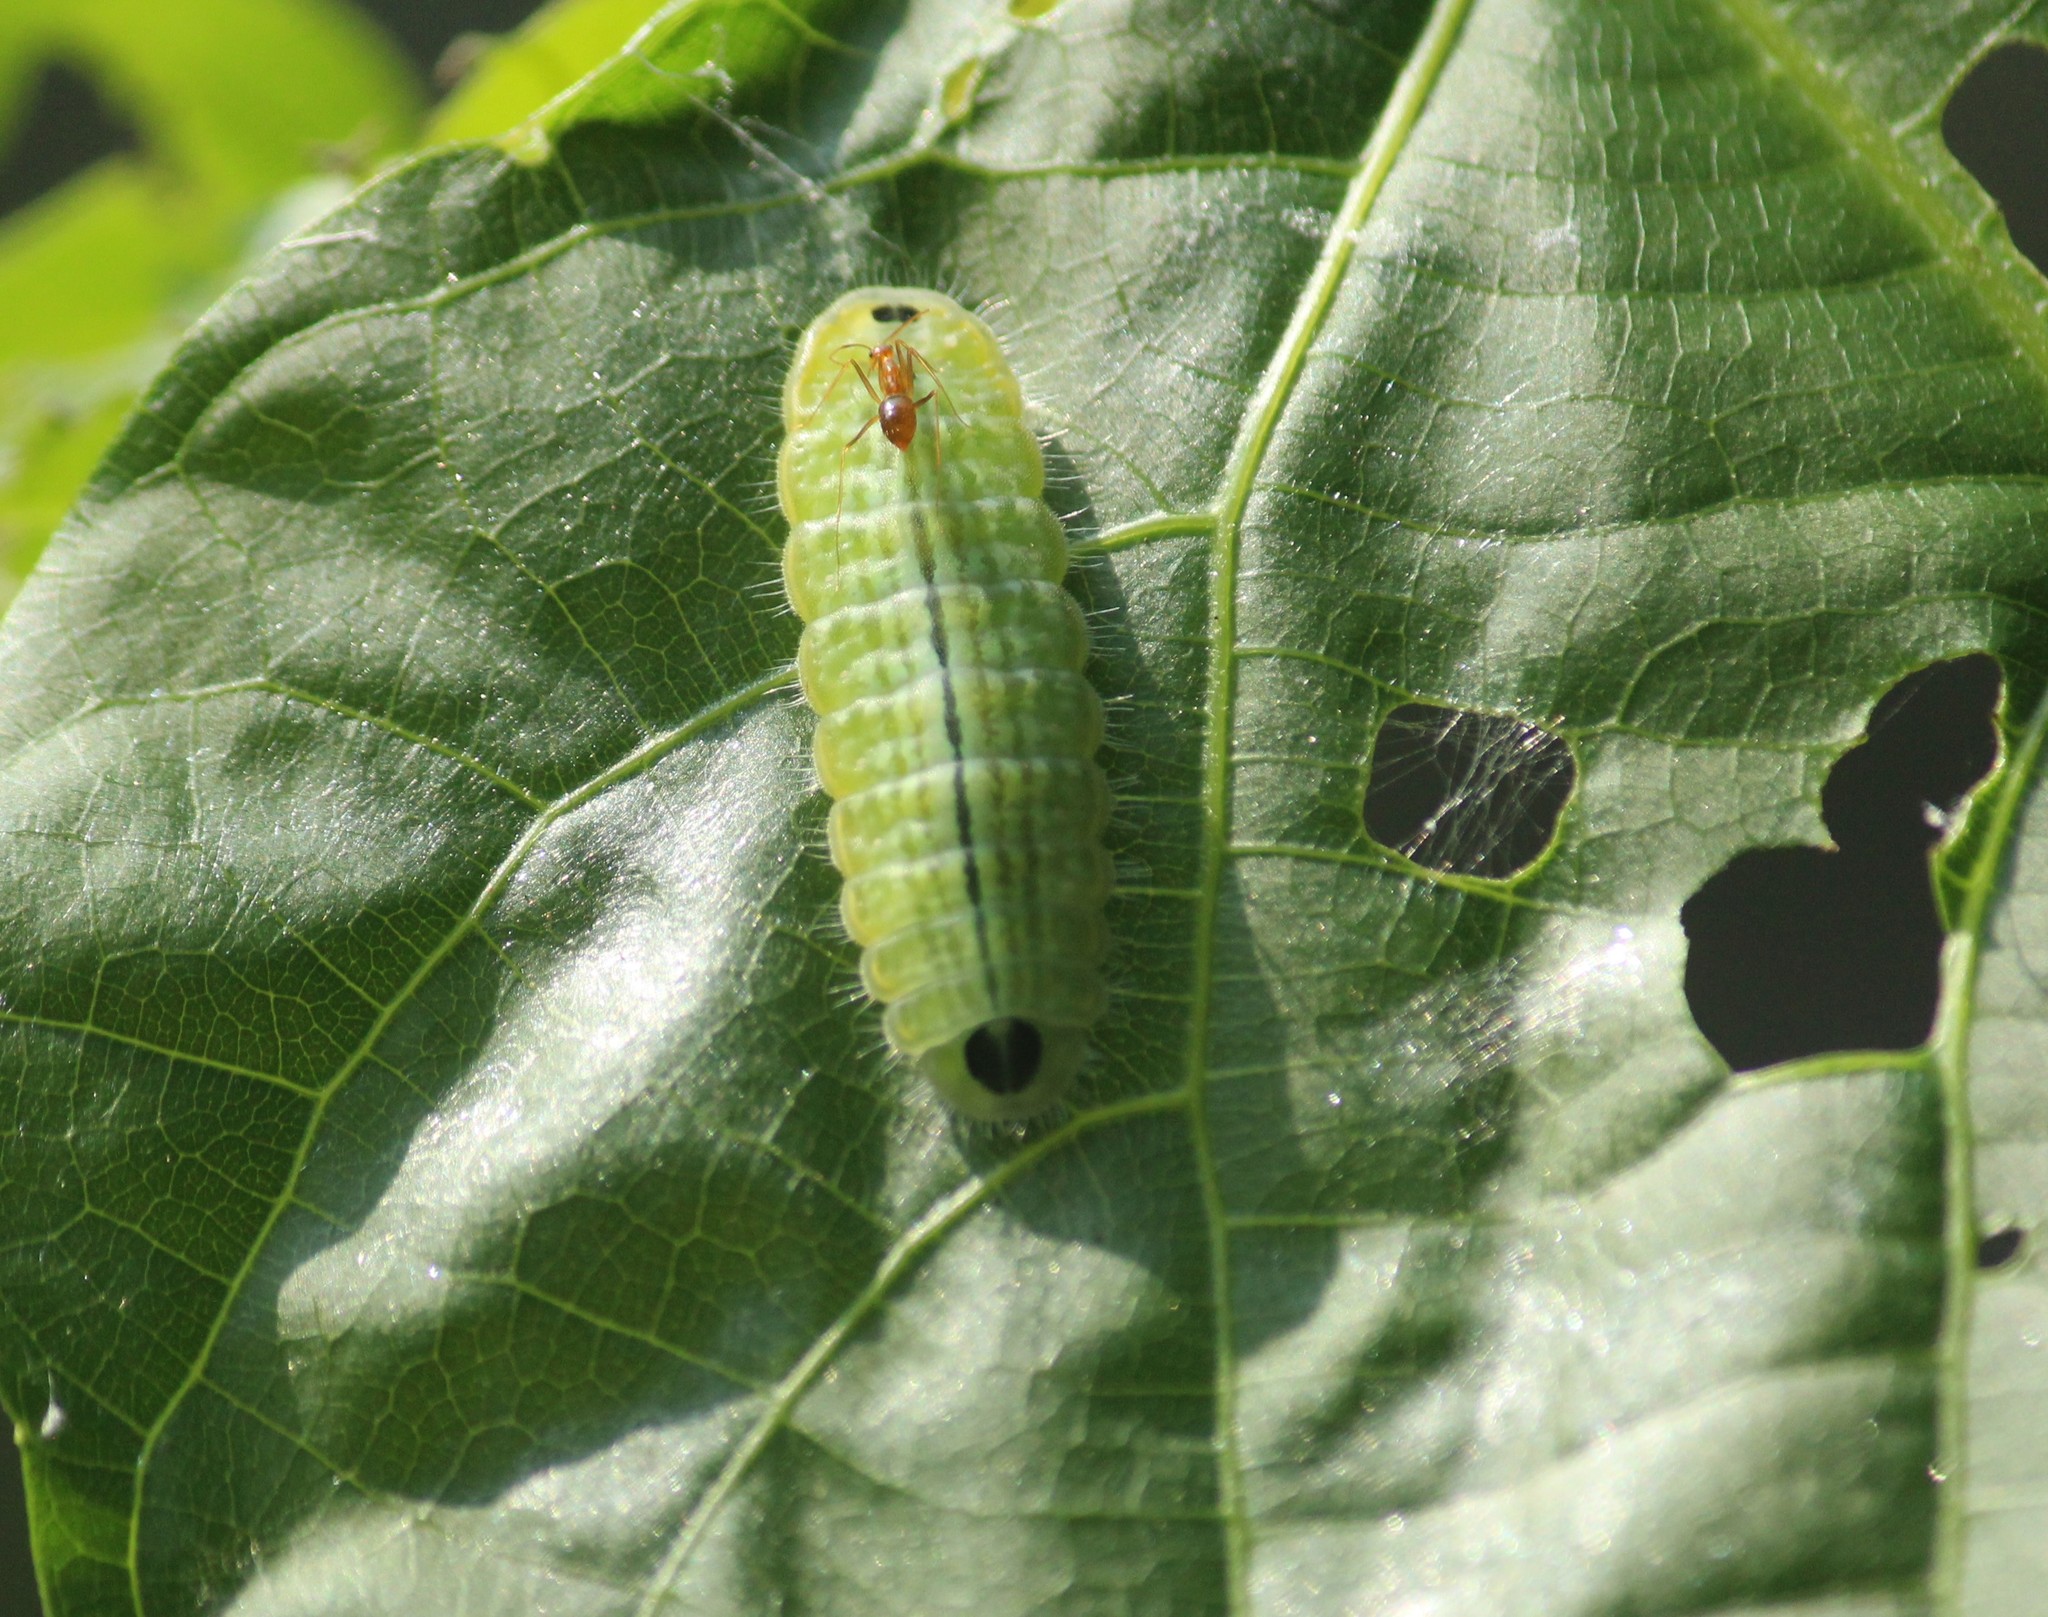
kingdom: Animalia
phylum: Arthropoda
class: Insecta
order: Lepidoptera
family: Lycaenidae
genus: Thaduka
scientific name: Thaduka multicaudata
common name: Many-tailed oakblue
